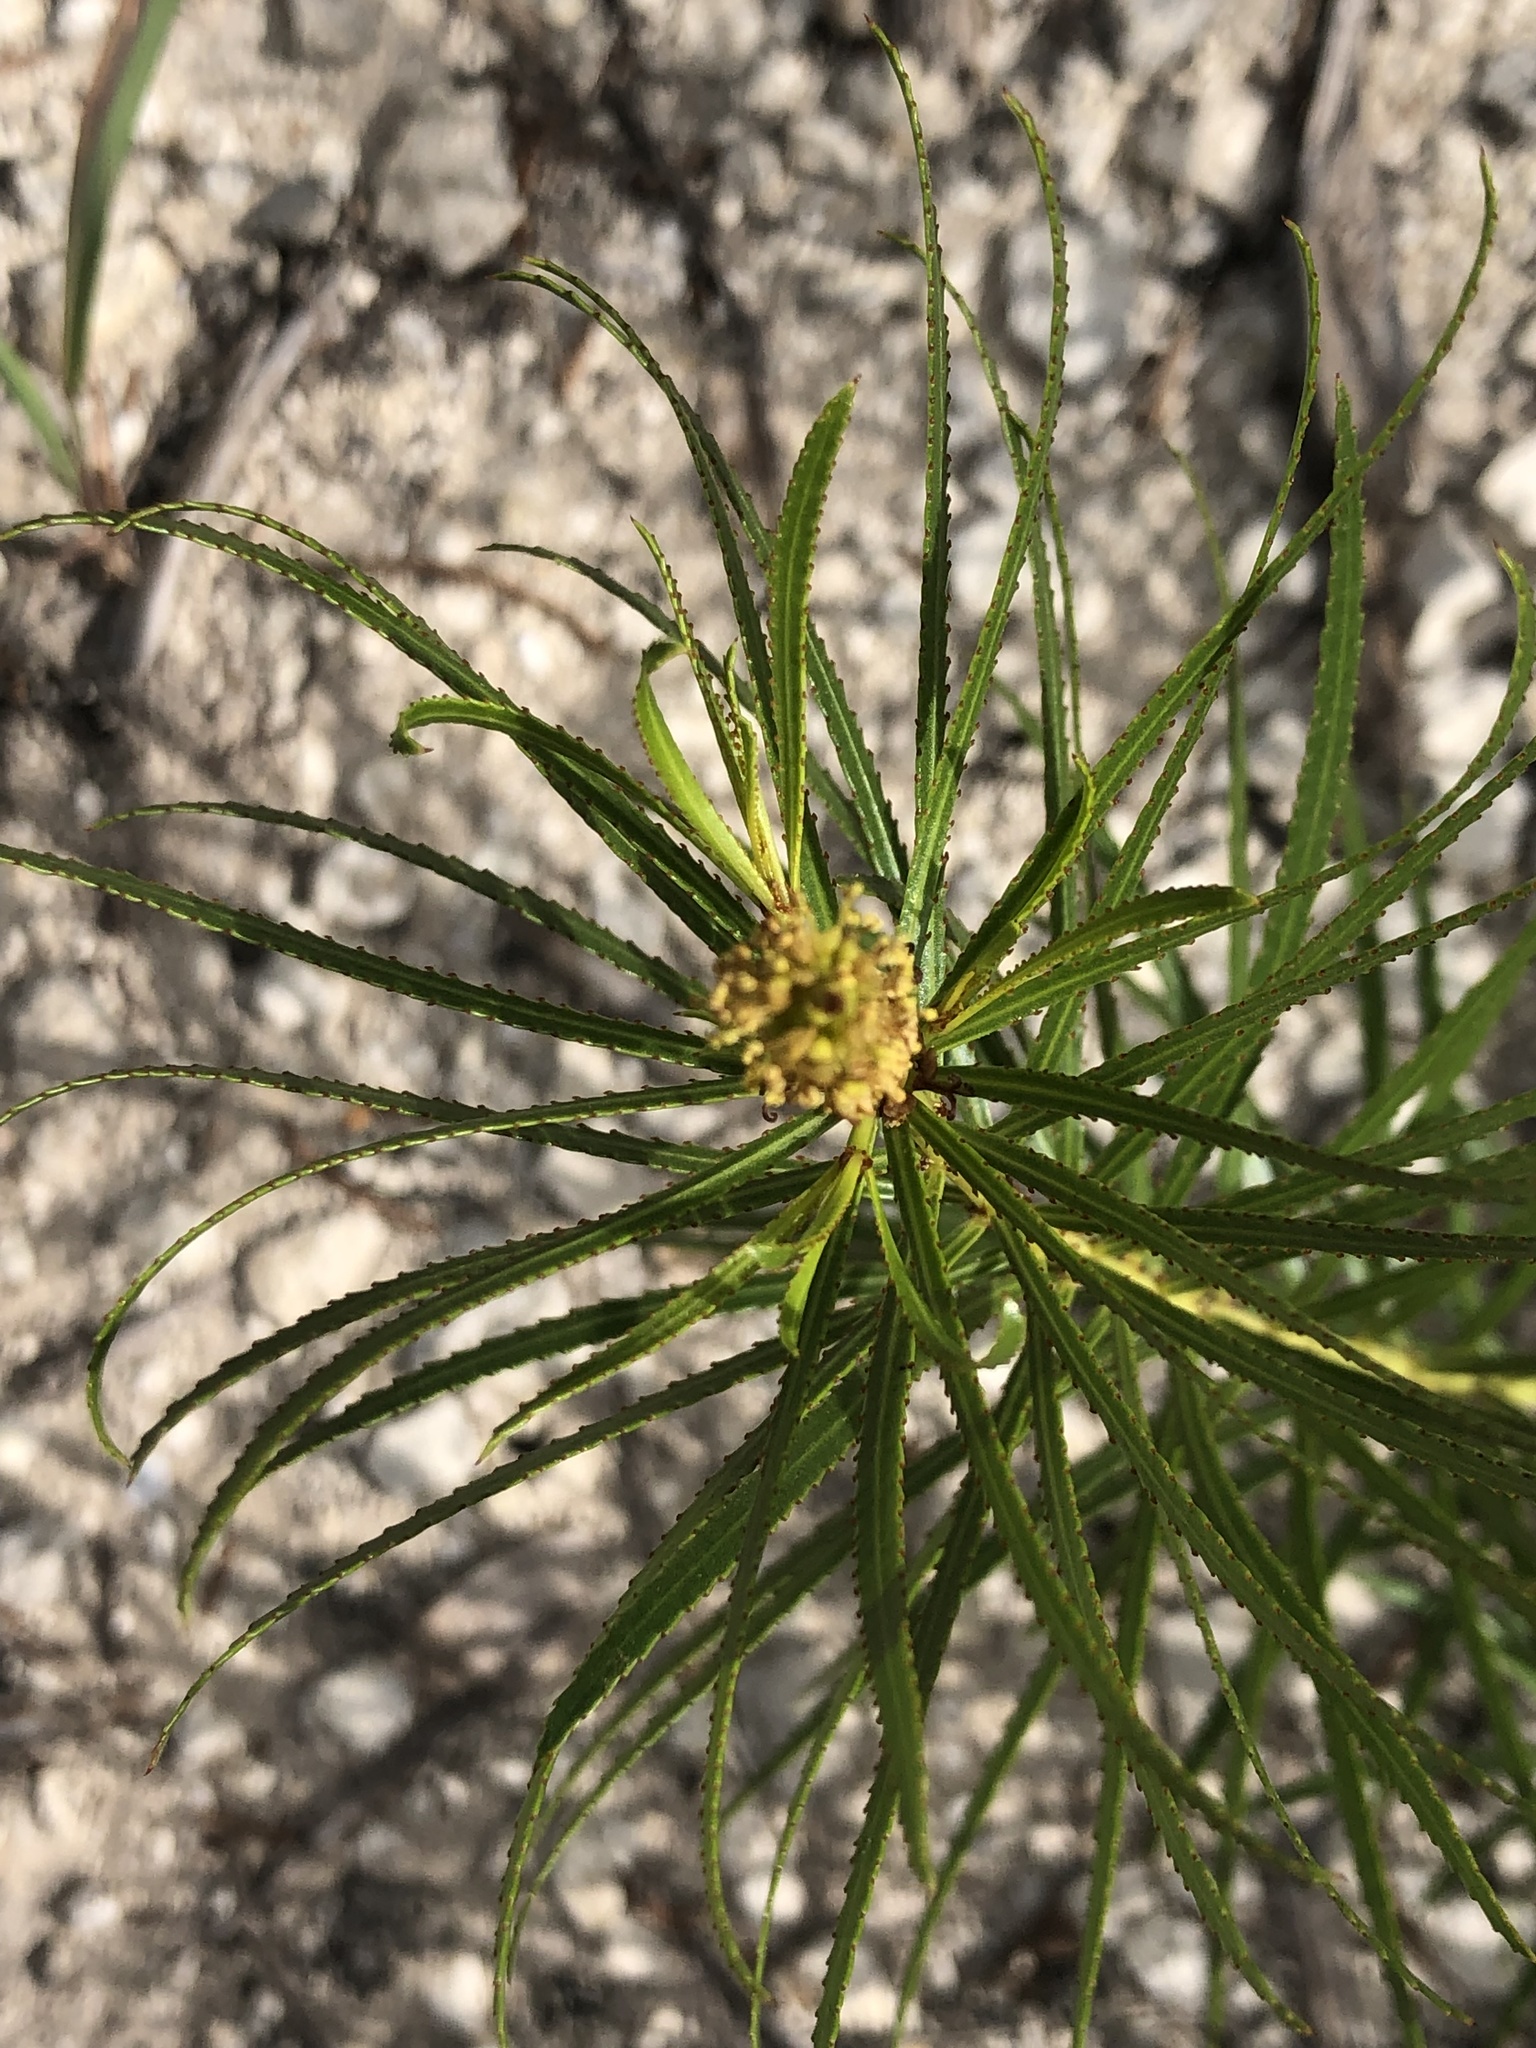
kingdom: Plantae
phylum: Tracheophyta
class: Magnoliopsida
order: Malpighiales
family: Euphorbiaceae
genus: Stillingia
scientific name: Stillingia texana
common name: Texas stillingia
